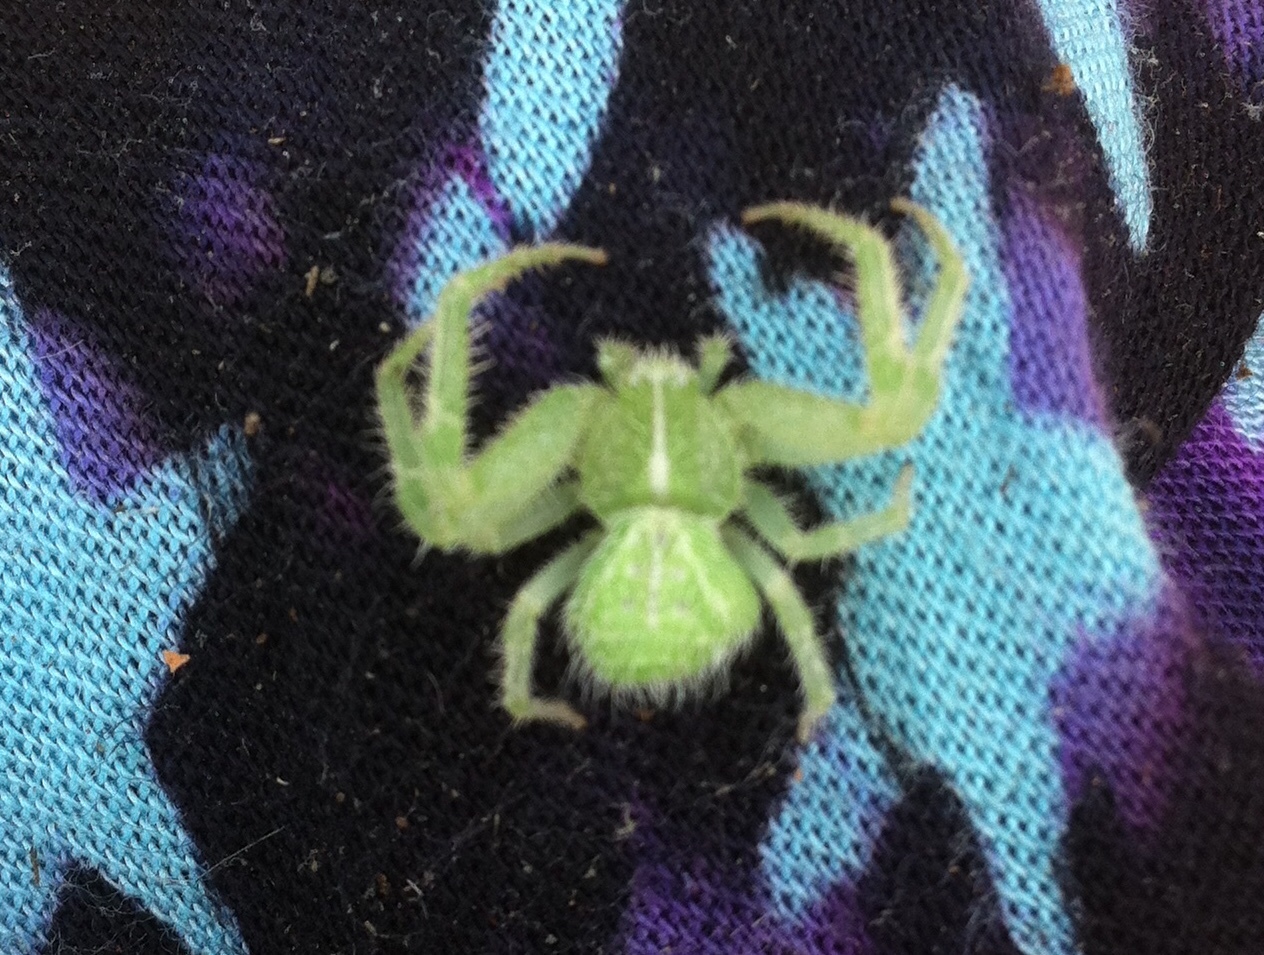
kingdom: Animalia
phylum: Arthropoda
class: Arachnida
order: Araneae
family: Thomisidae
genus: Heriaeus
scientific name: Heriaeus hirtus
